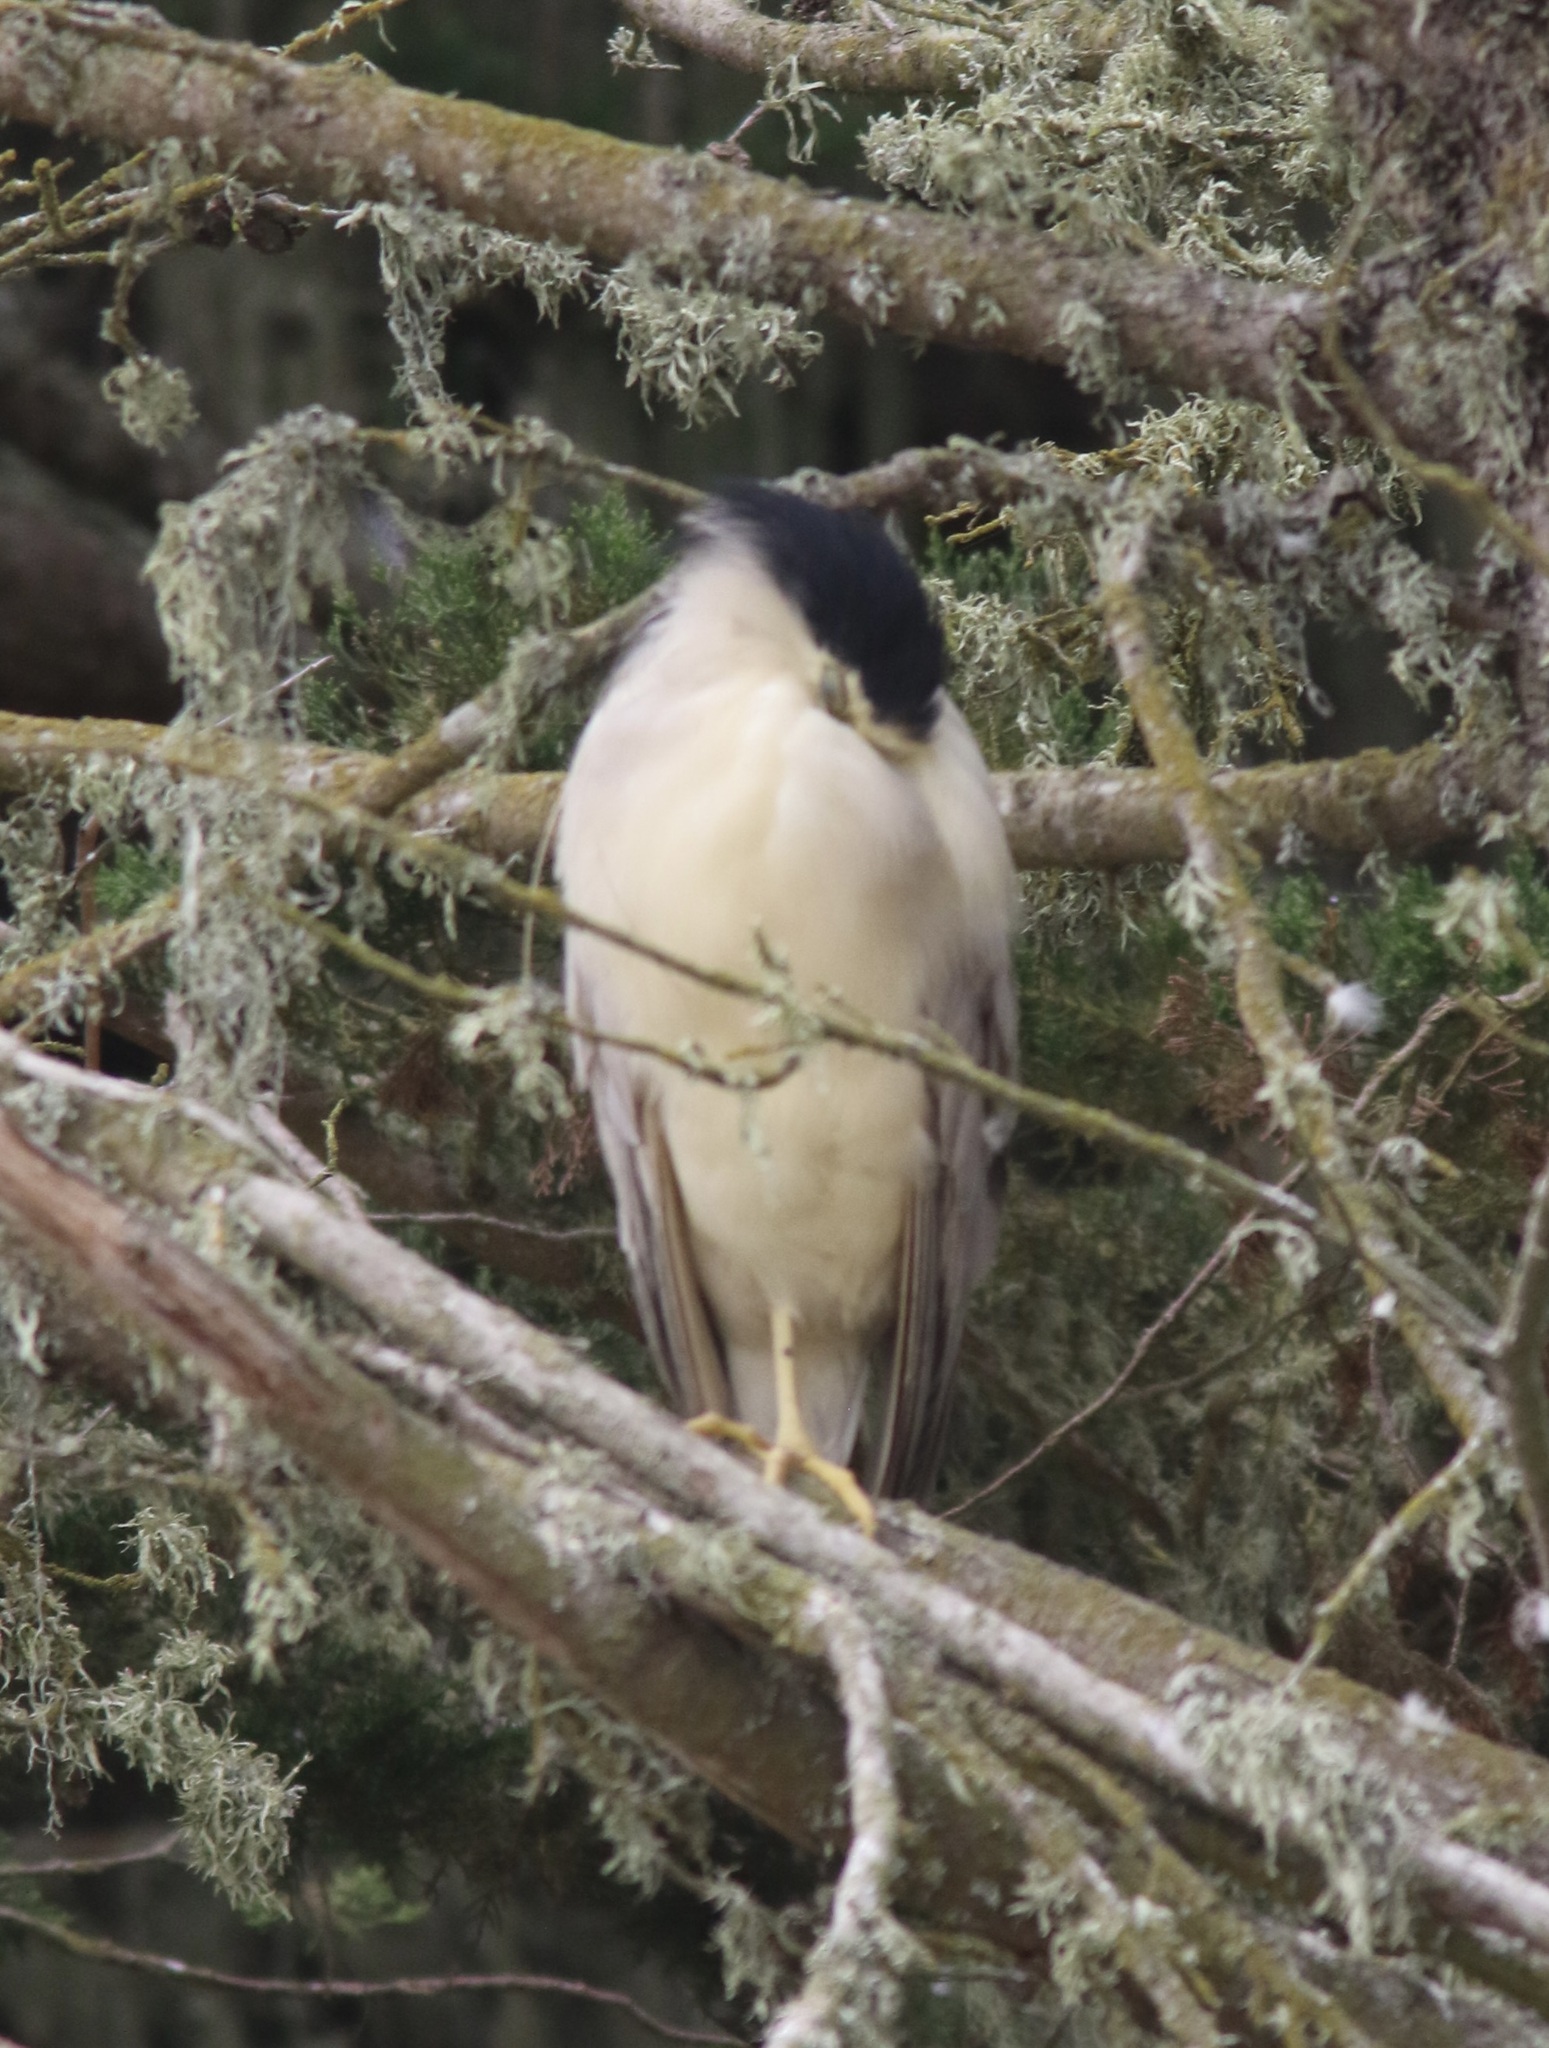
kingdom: Animalia
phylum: Chordata
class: Aves
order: Pelecaniformes
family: Ardeidae
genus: Nycticorax
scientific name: Nycticorax nycticorax
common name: Black-crowned night heron
